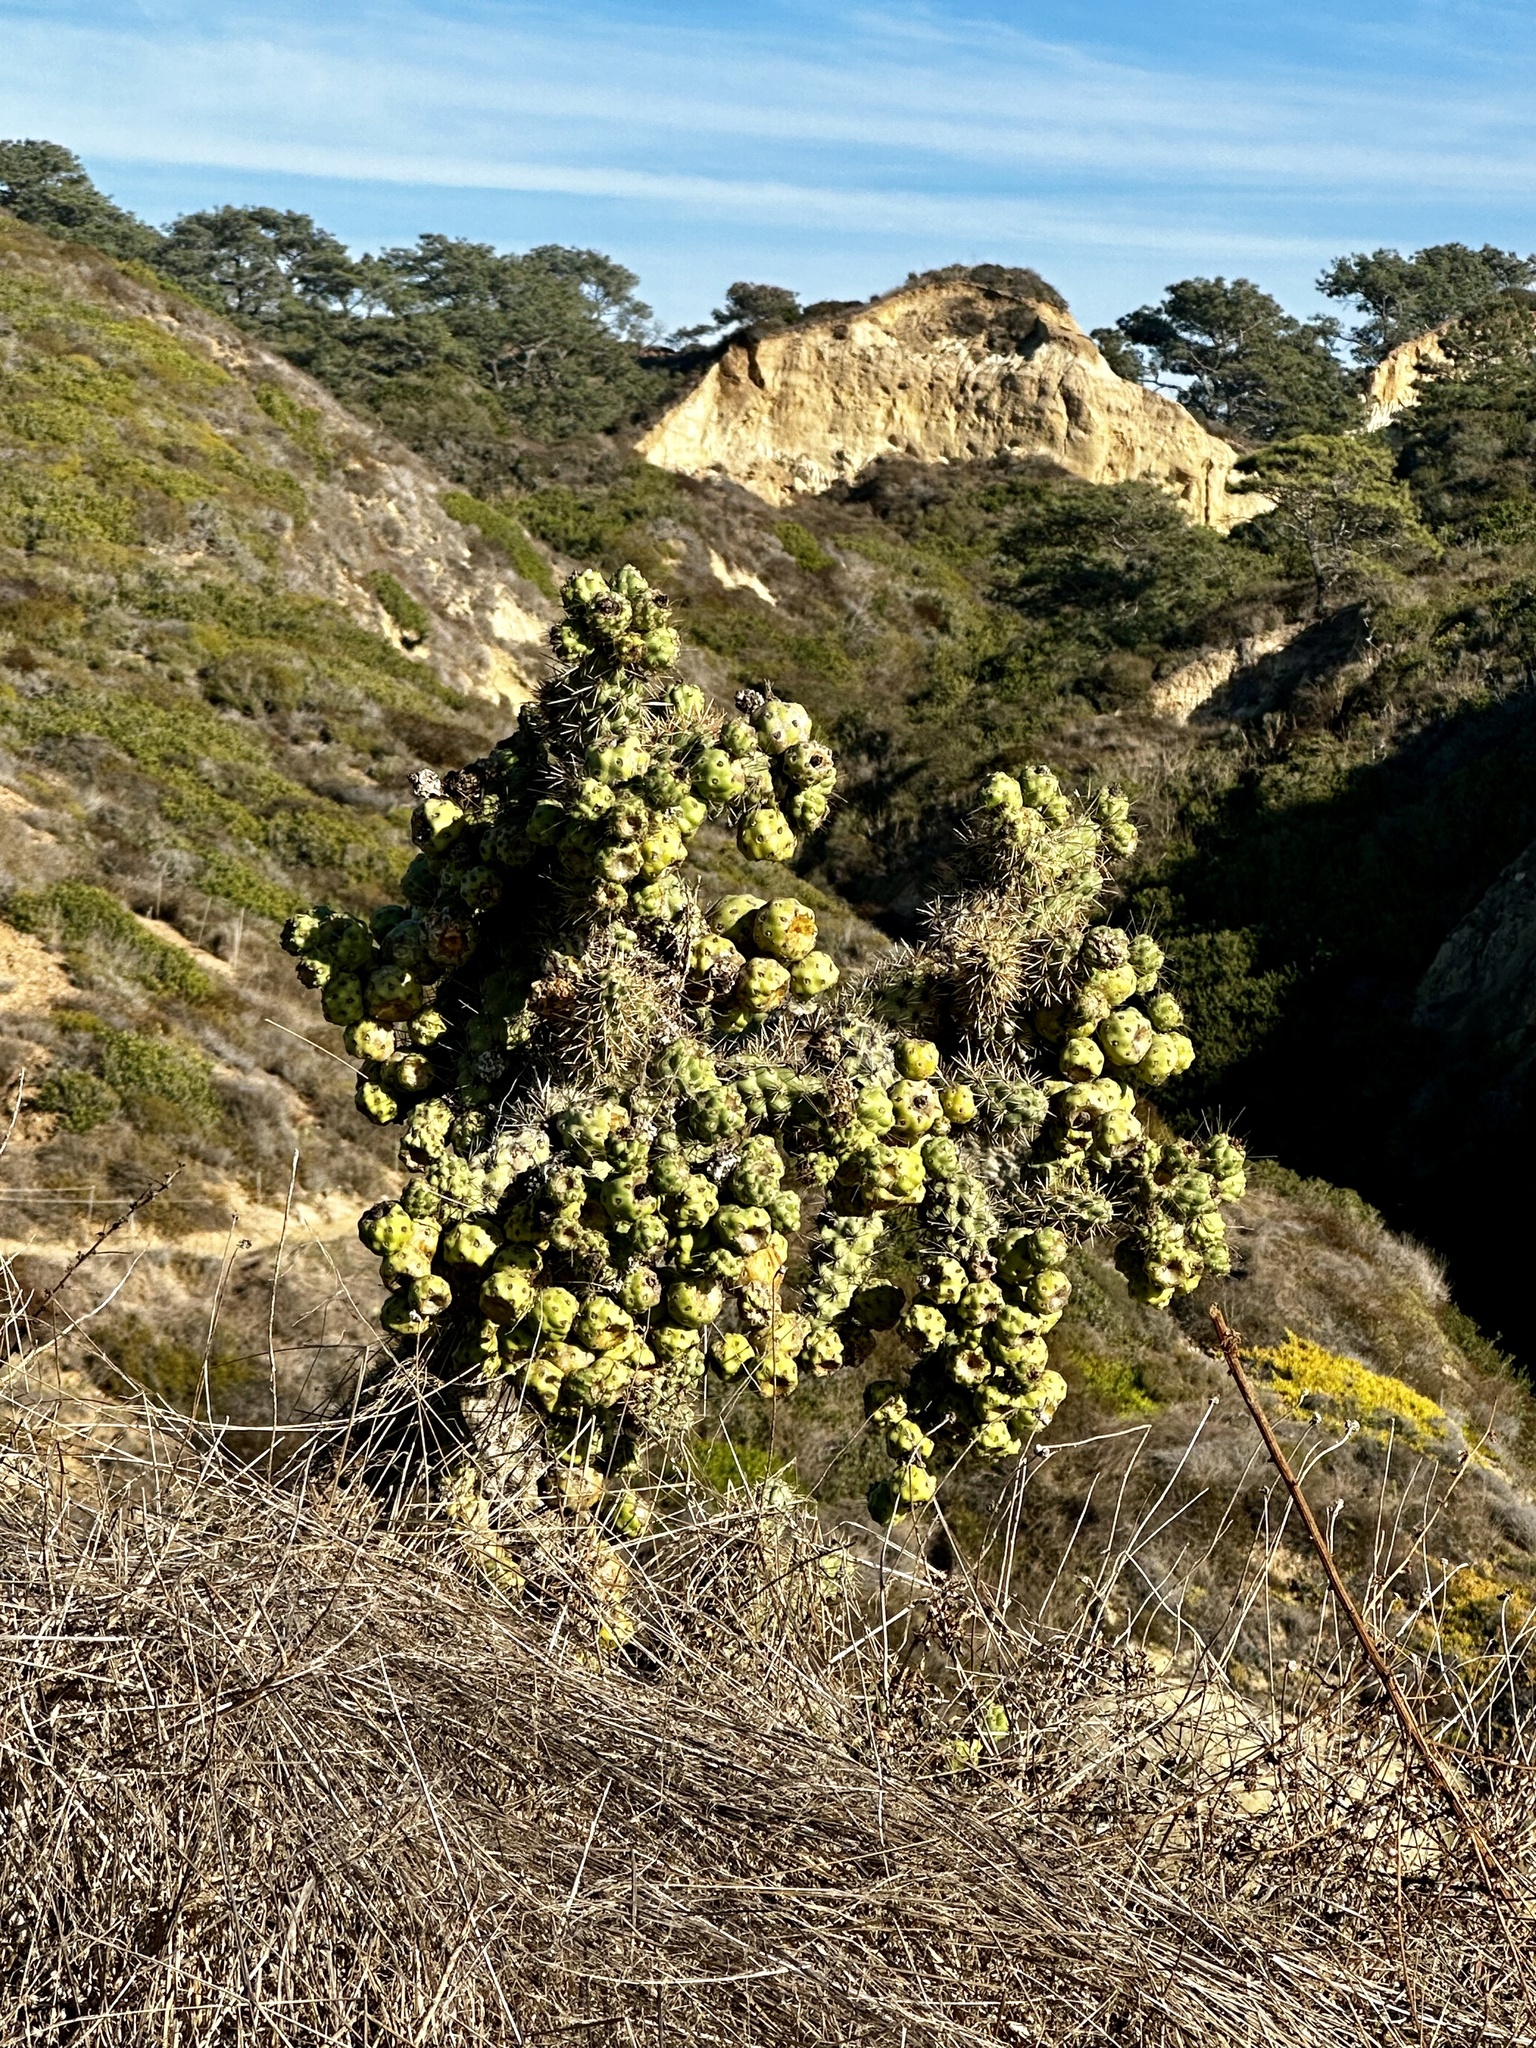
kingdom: Plantae
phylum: Tracheophyta
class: Magnoliopsida
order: Caryophyllales
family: Cactaceae
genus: Cylindropuntia
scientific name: Cylindropuntia prolifera
